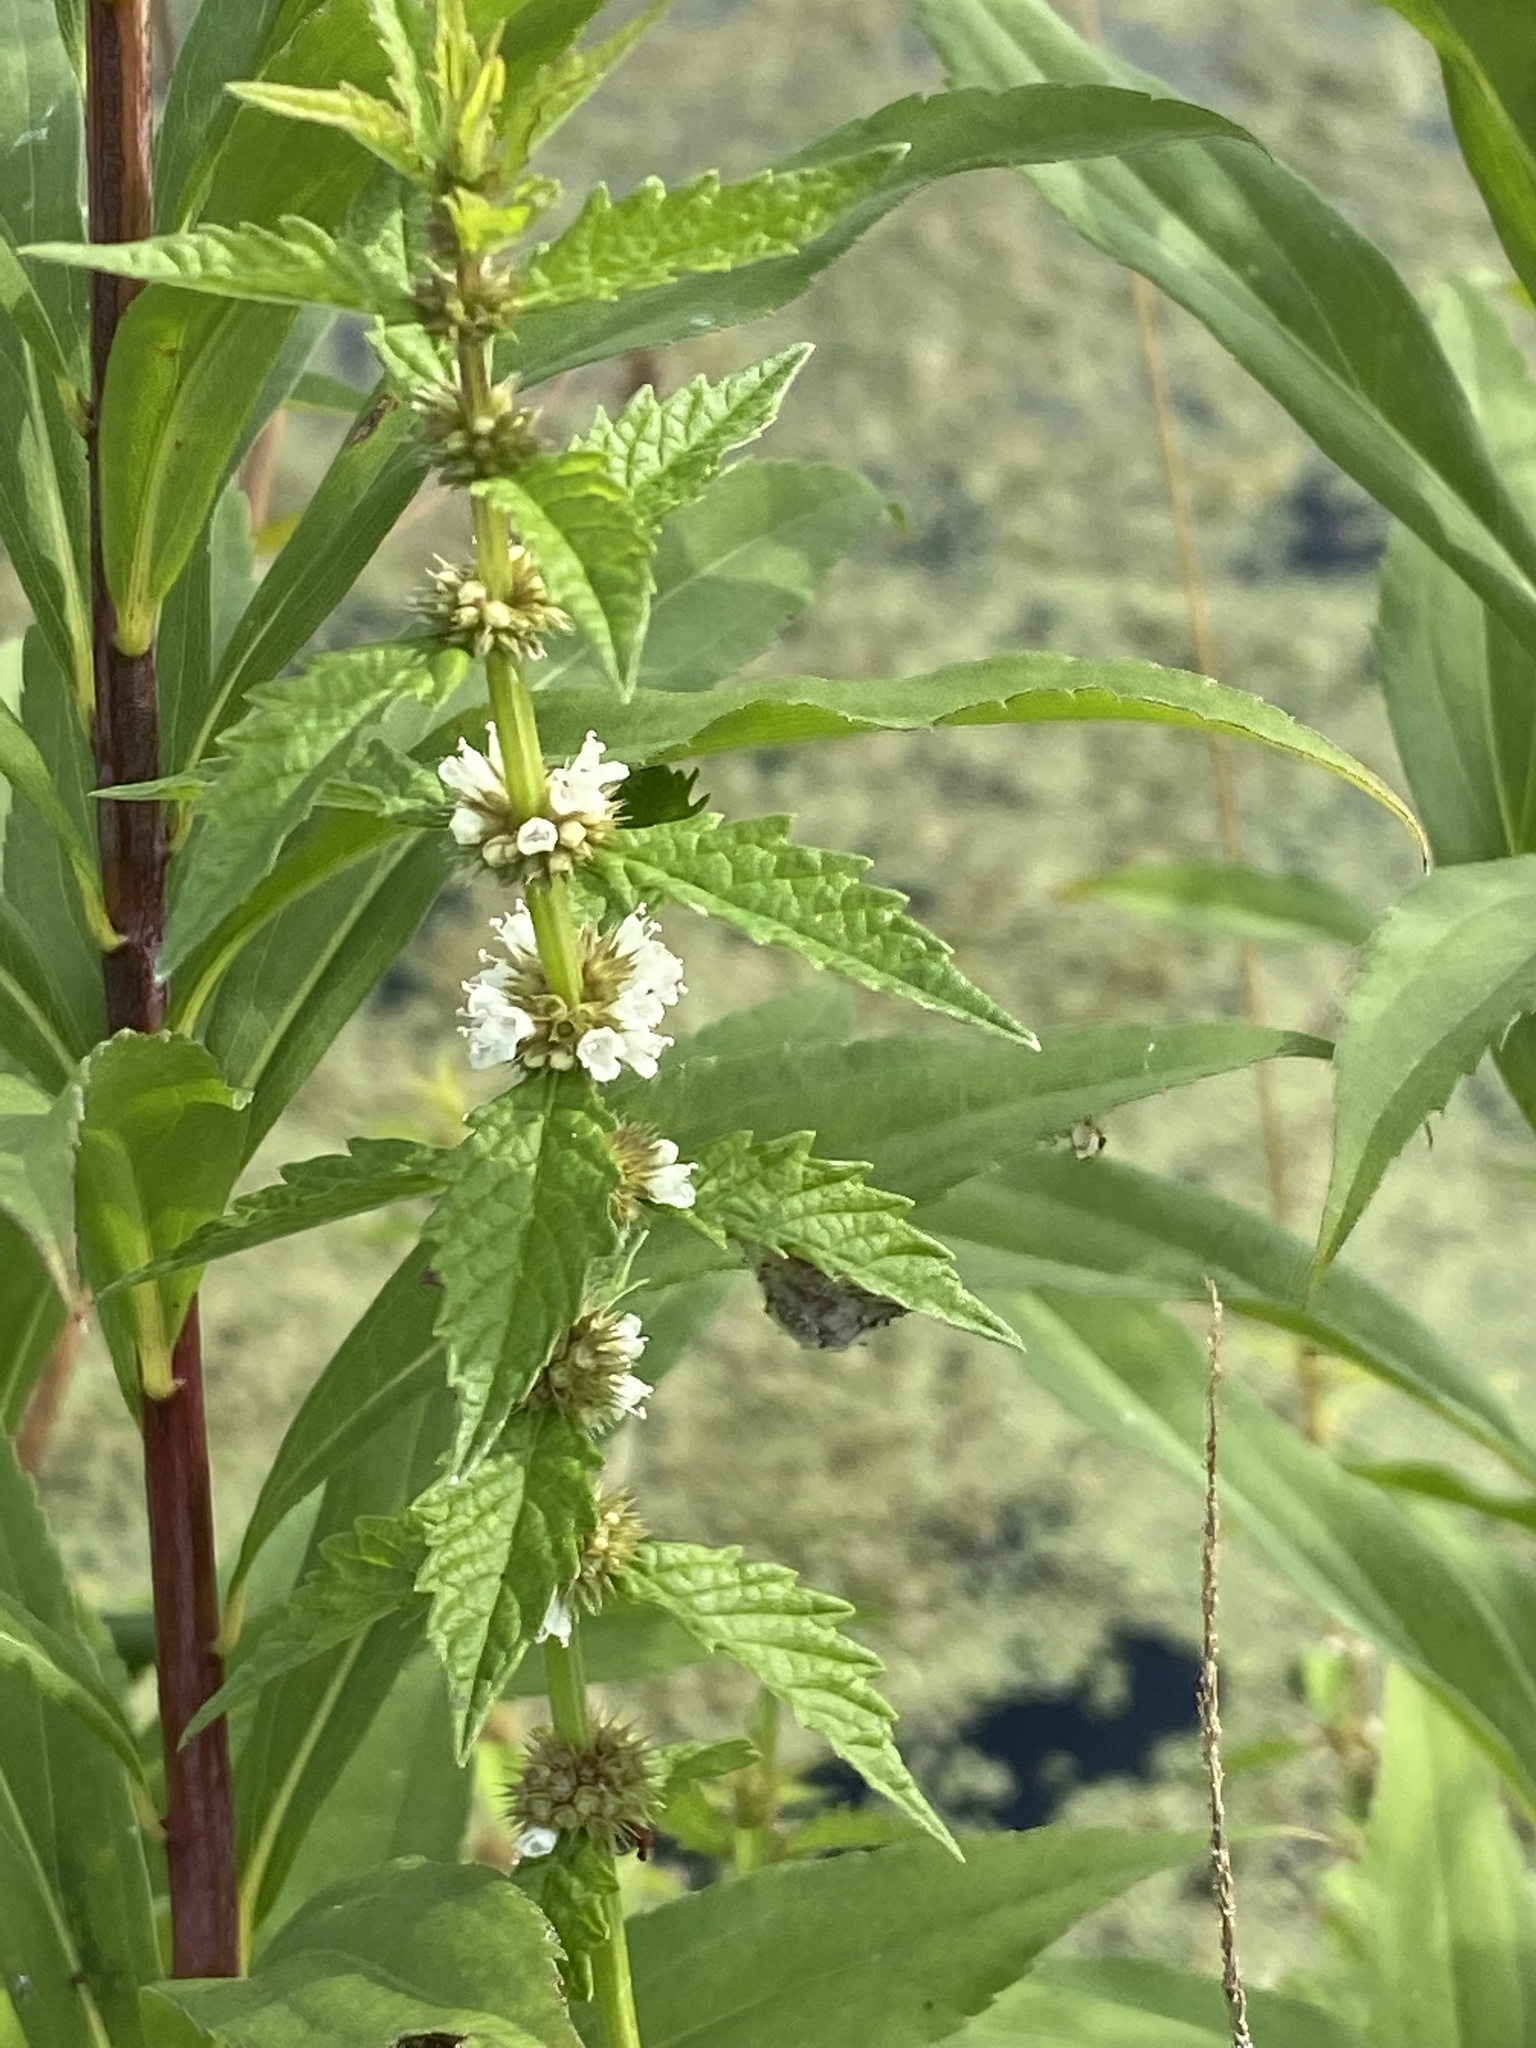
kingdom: Plantae
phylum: Tracheophyta
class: Magnoliopsida
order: Lamiales
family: Lamiaceae
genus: Lycopus
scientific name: Lycopus europaeus
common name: European bugleweed
